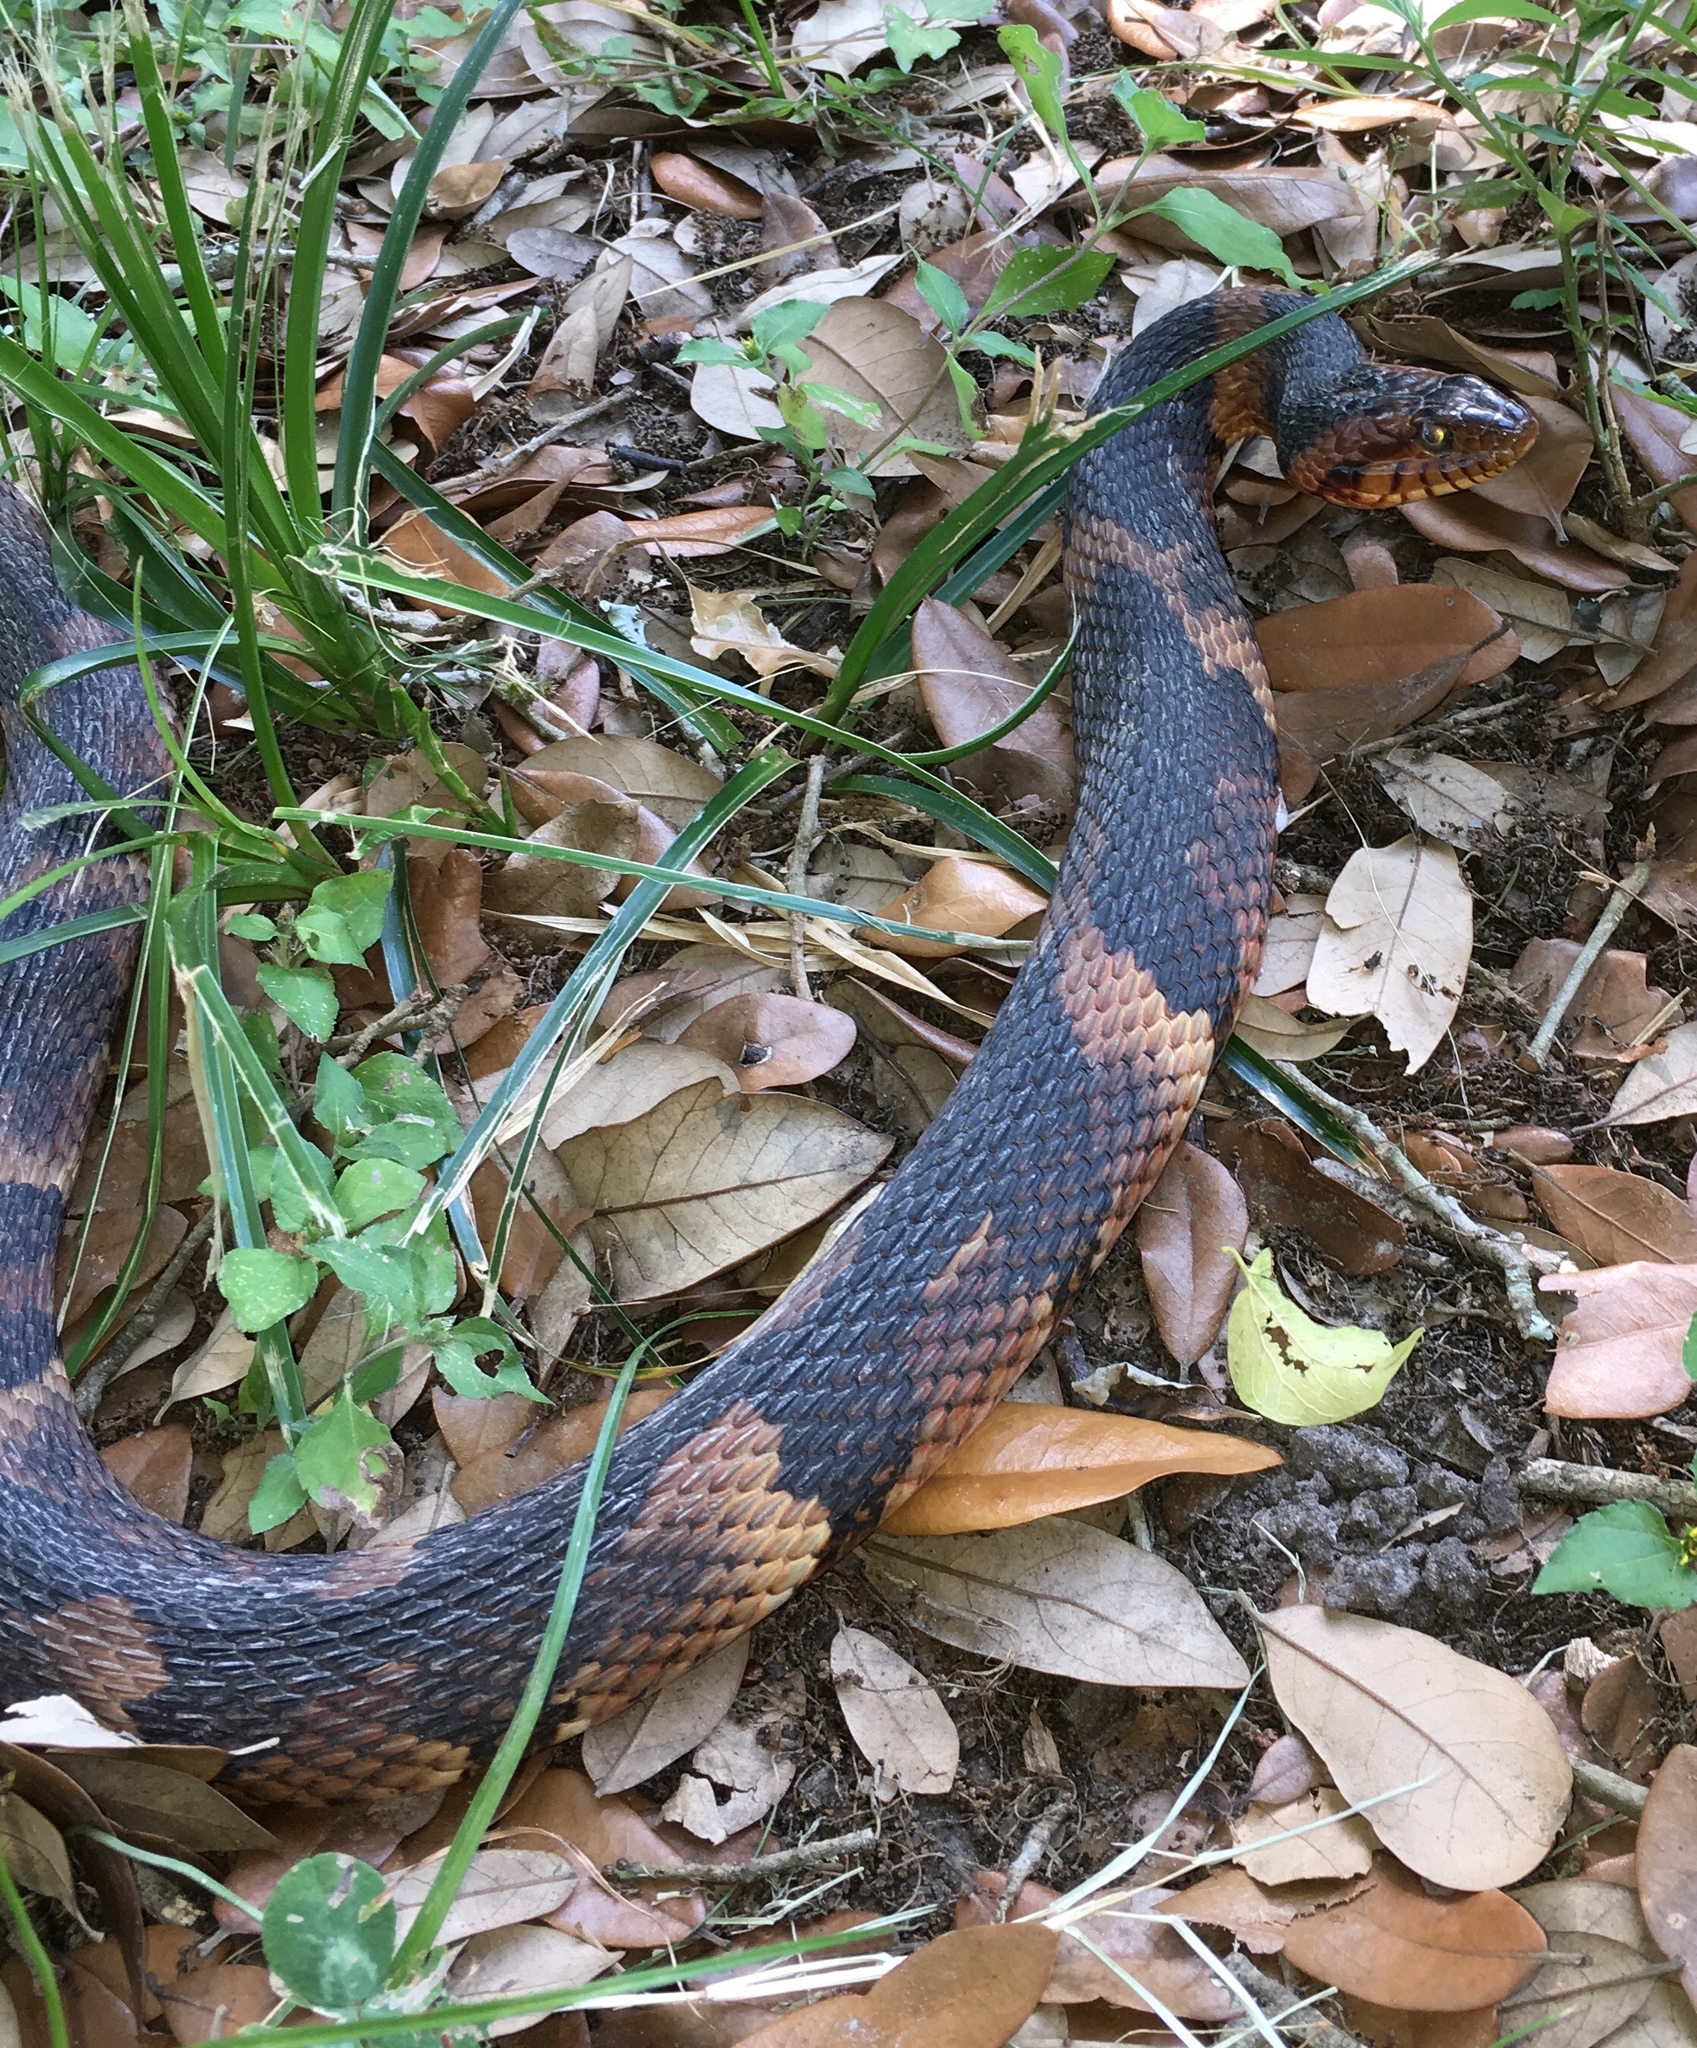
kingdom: Animalia
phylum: Chordata
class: Squamata
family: Colubridae
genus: Nerodia
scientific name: Nerodia fasciata
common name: Southern water snake
